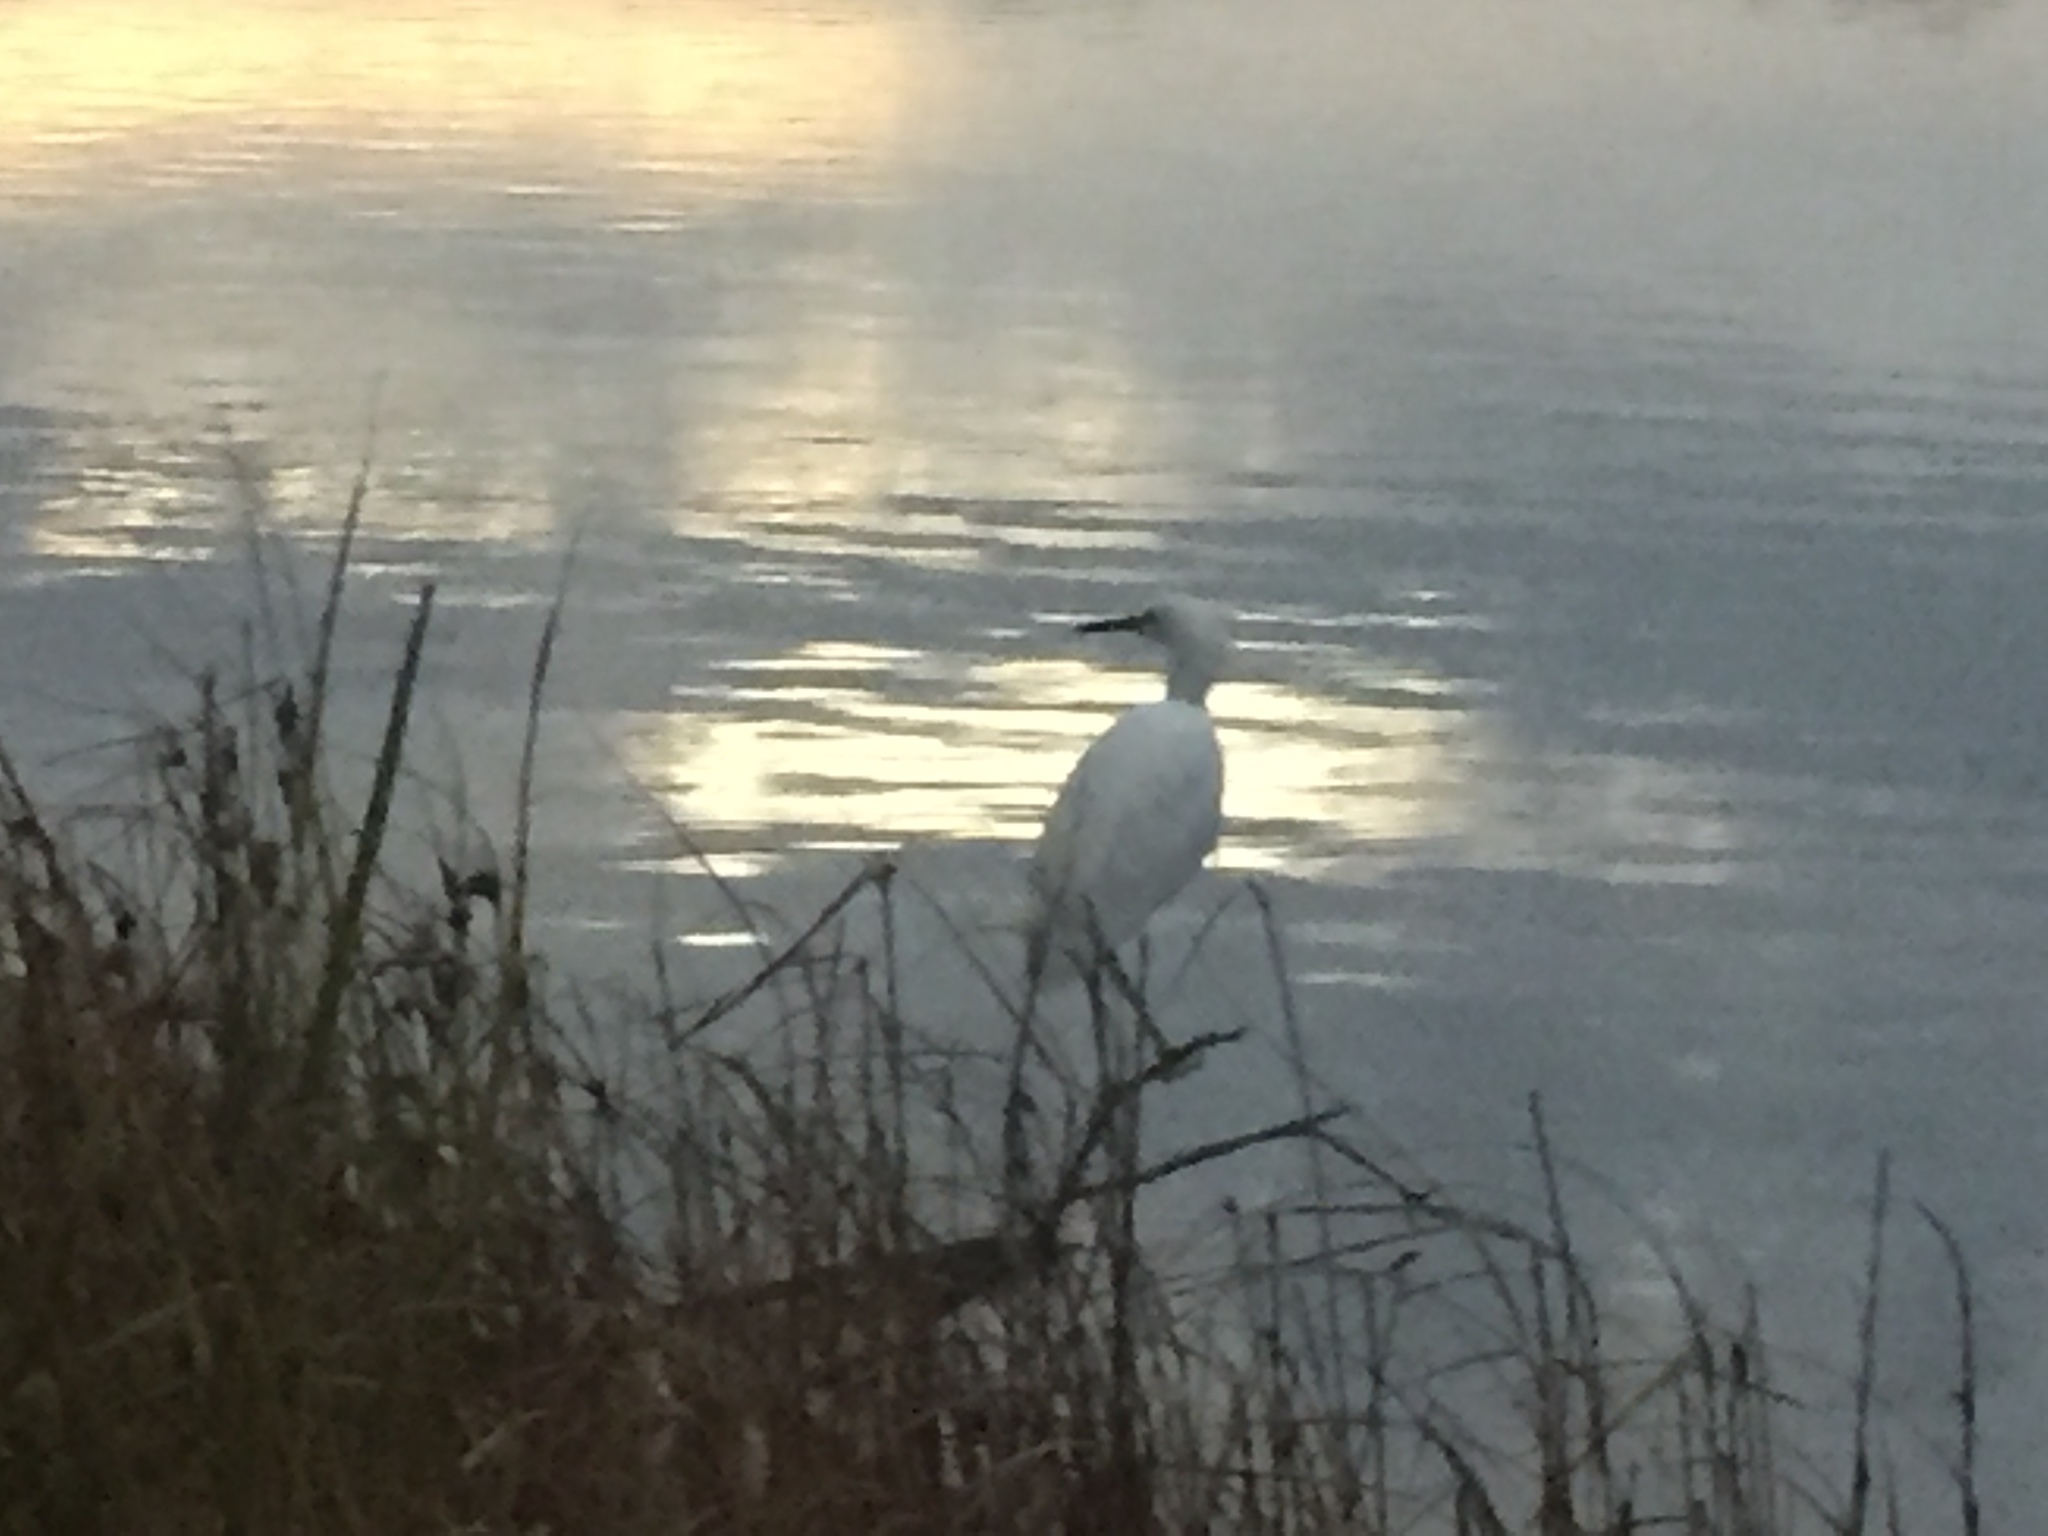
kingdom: Animalia
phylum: Chordata
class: Aves
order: Pelecaniformes
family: Ardeidae
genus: Egretta
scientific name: Egretta thula
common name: Snowy egret
